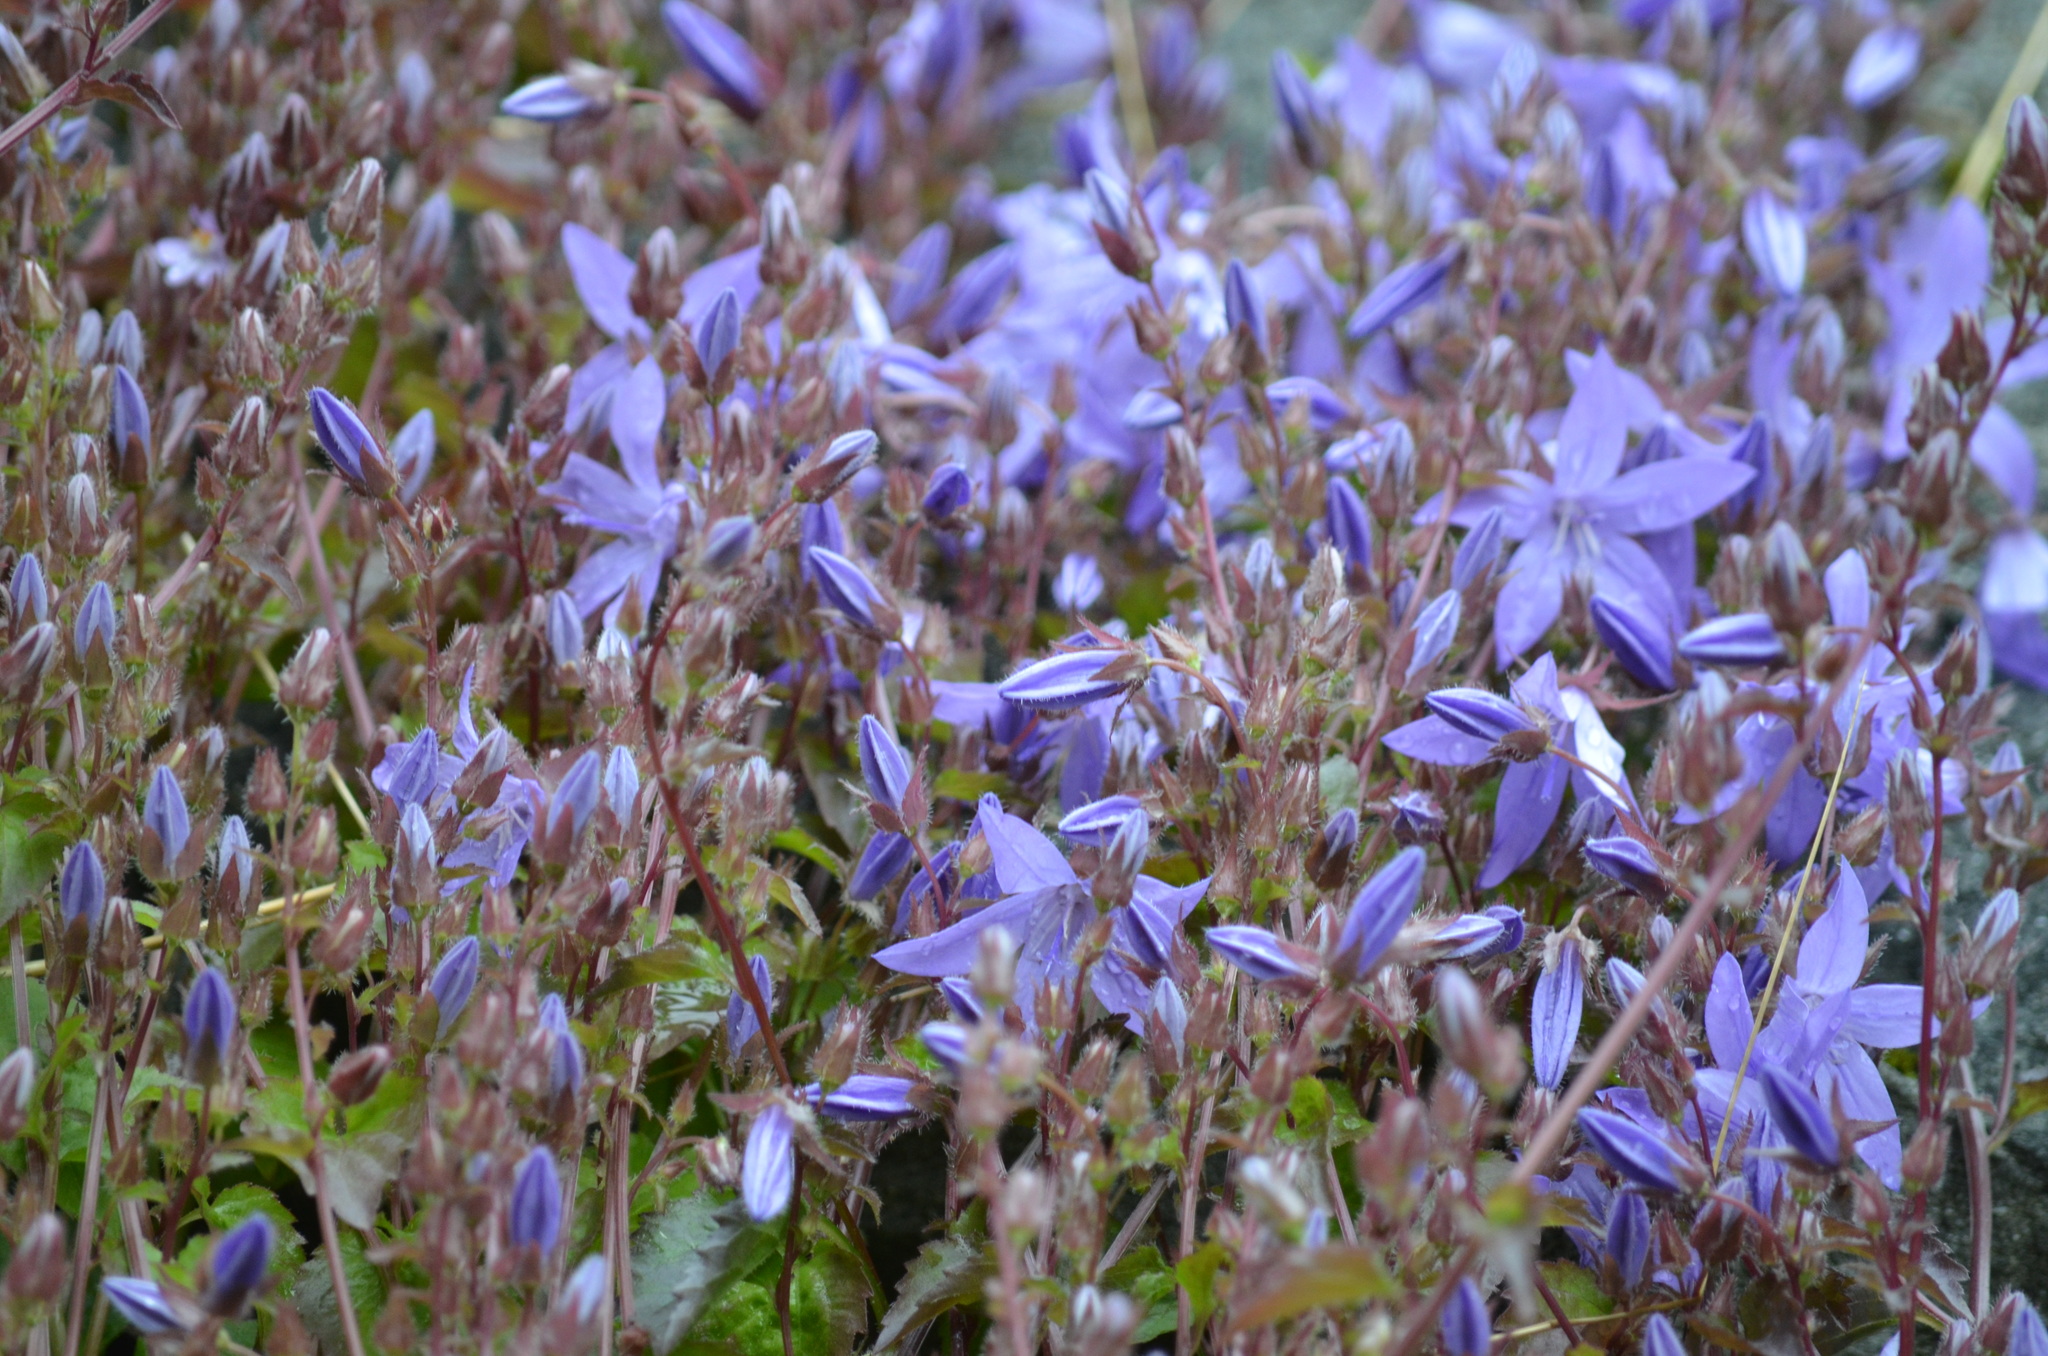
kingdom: Plantae
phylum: Tracheophyta
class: Magnoliopsida
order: Asterales
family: Campanulaceae
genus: Campanula
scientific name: Campanula rapunculoides
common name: Creeping bellflower
